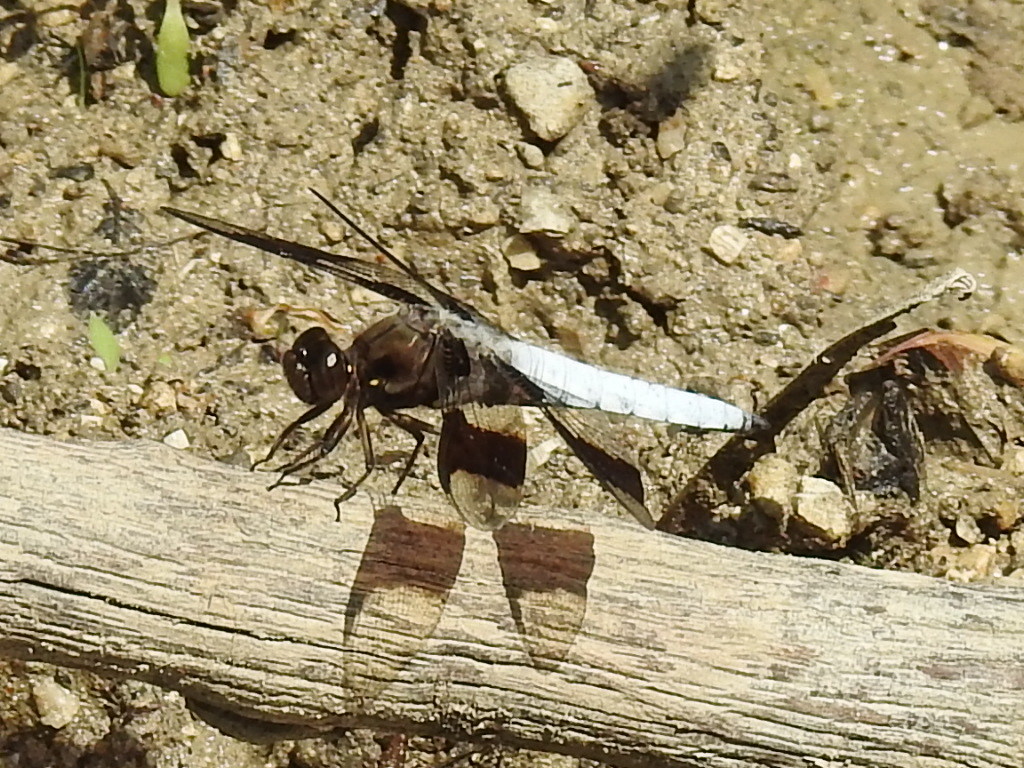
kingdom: Animalia
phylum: Arthropoda
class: Insecta
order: Odonata
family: Libellulidae
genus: Plathemis
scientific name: Plathemis lydia
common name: Common whitetail
